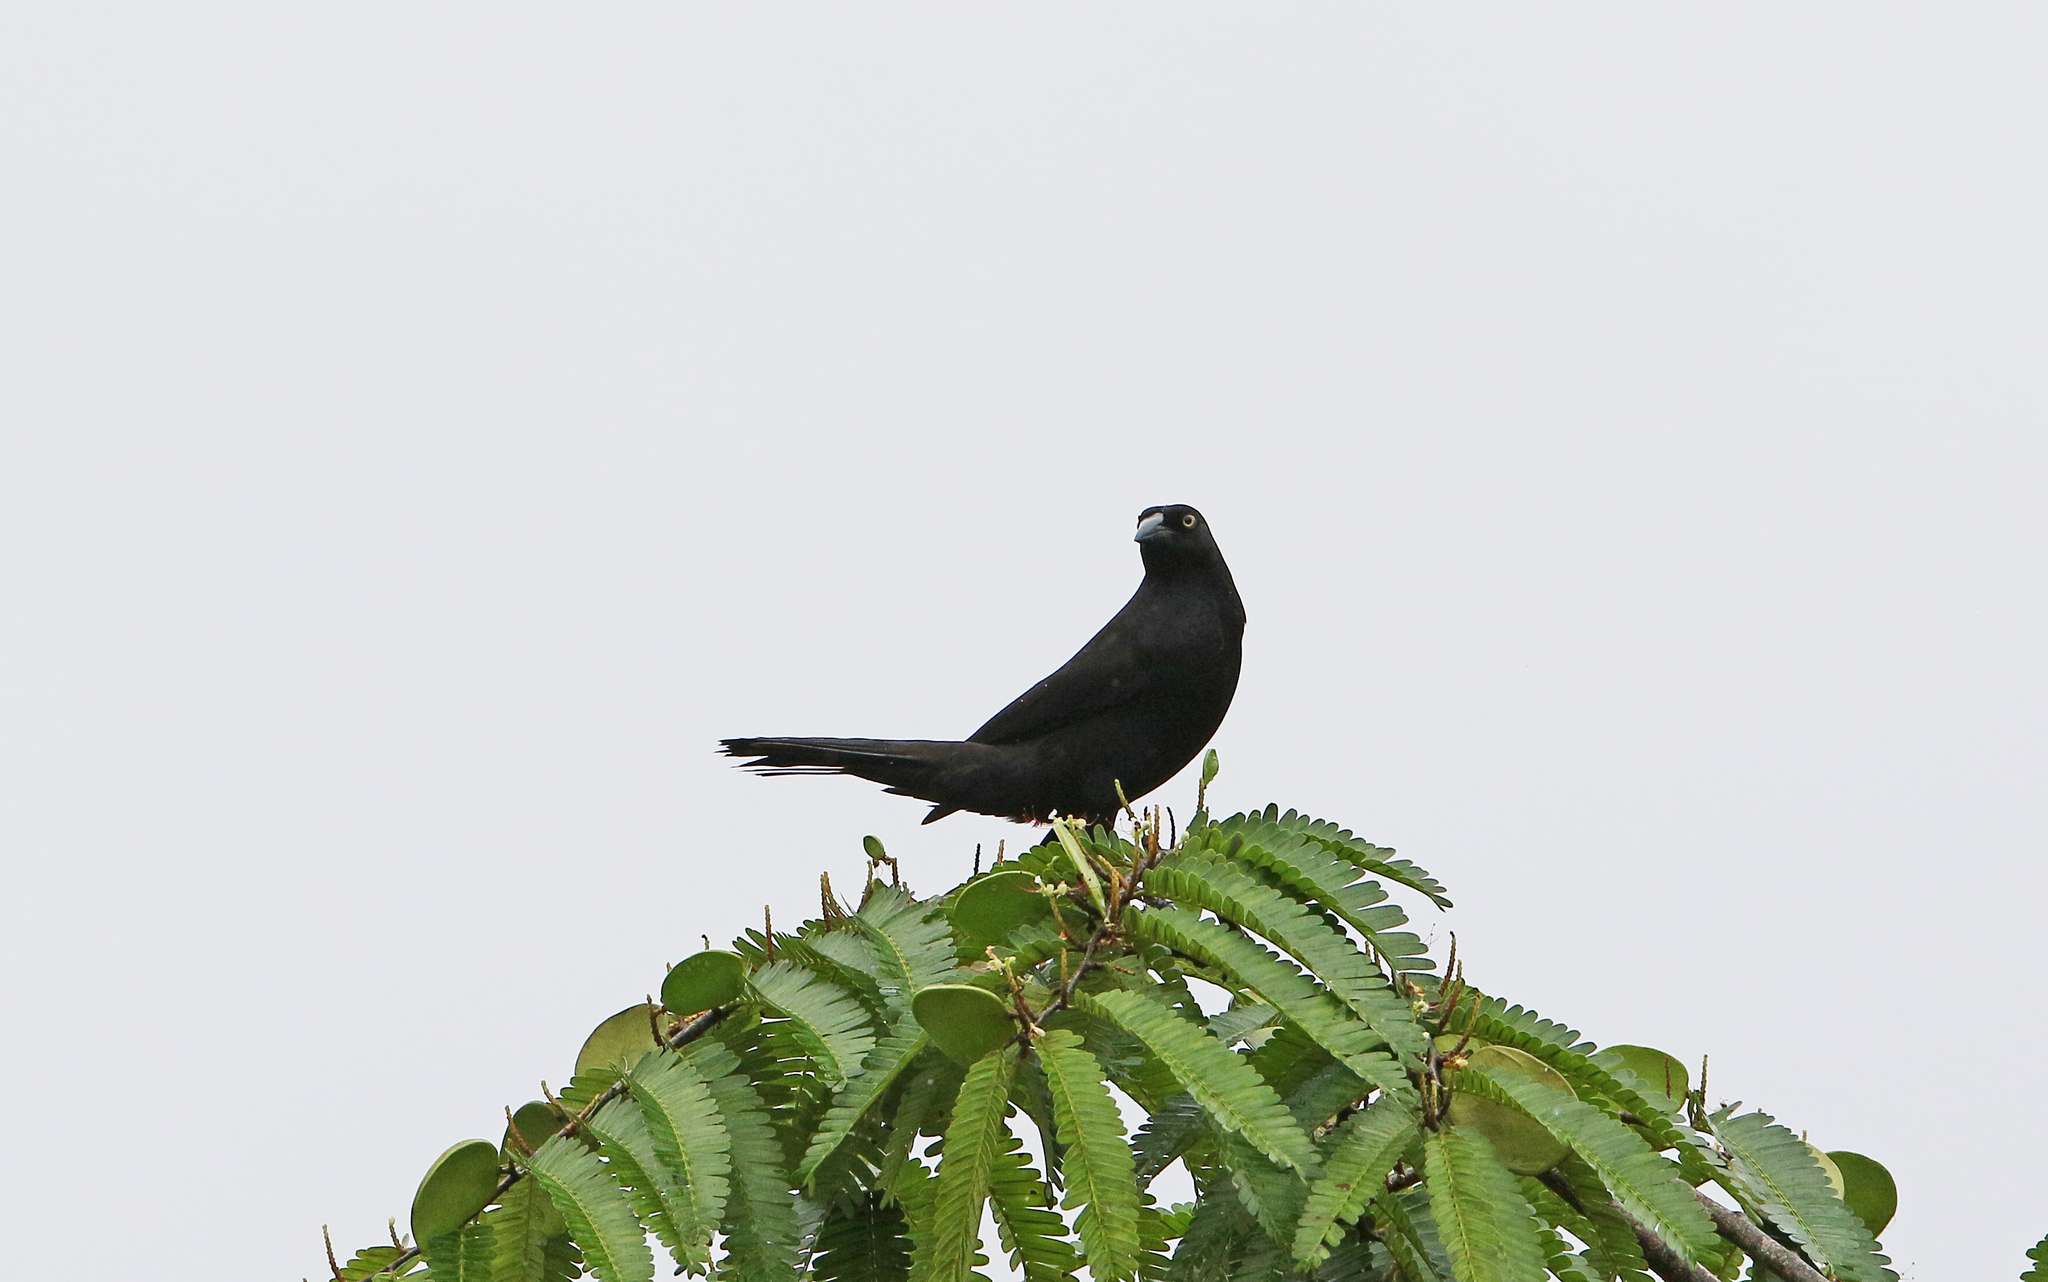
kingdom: Animalia
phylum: Chordata
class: Aves
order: Passeriformes
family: Icteridae
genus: Molothrus
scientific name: Molothrus oryzivorus
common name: Giant cowbird
